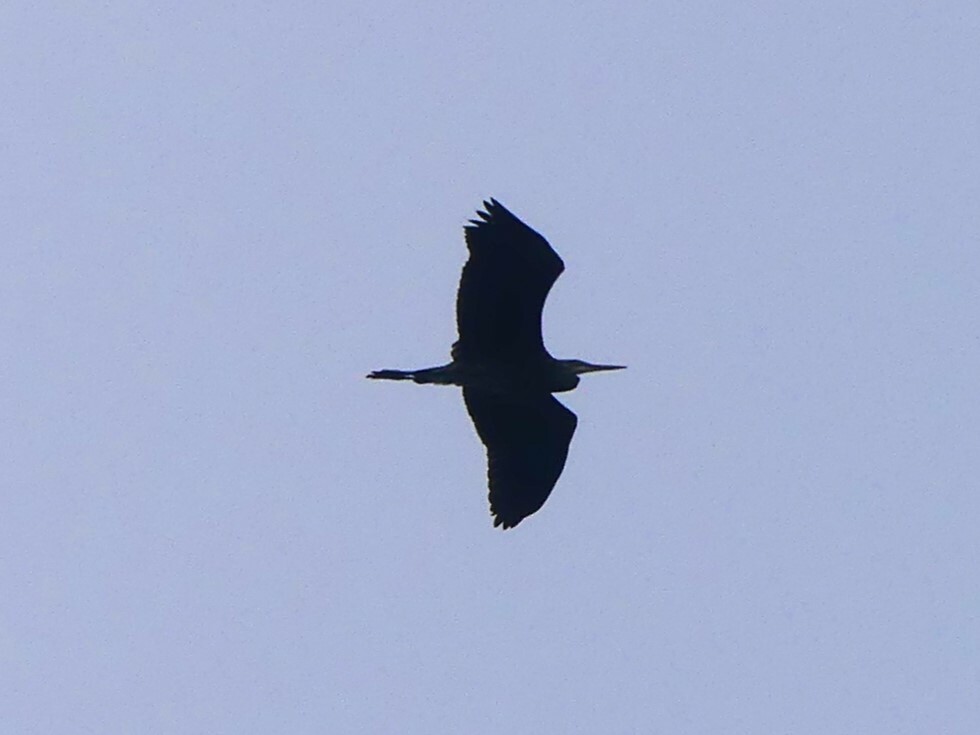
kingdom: Animalia
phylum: Chordata
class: Aves
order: Pelecaniformes
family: Ardeidae
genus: Ardea
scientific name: Ardea herodias
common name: Great blue heron
